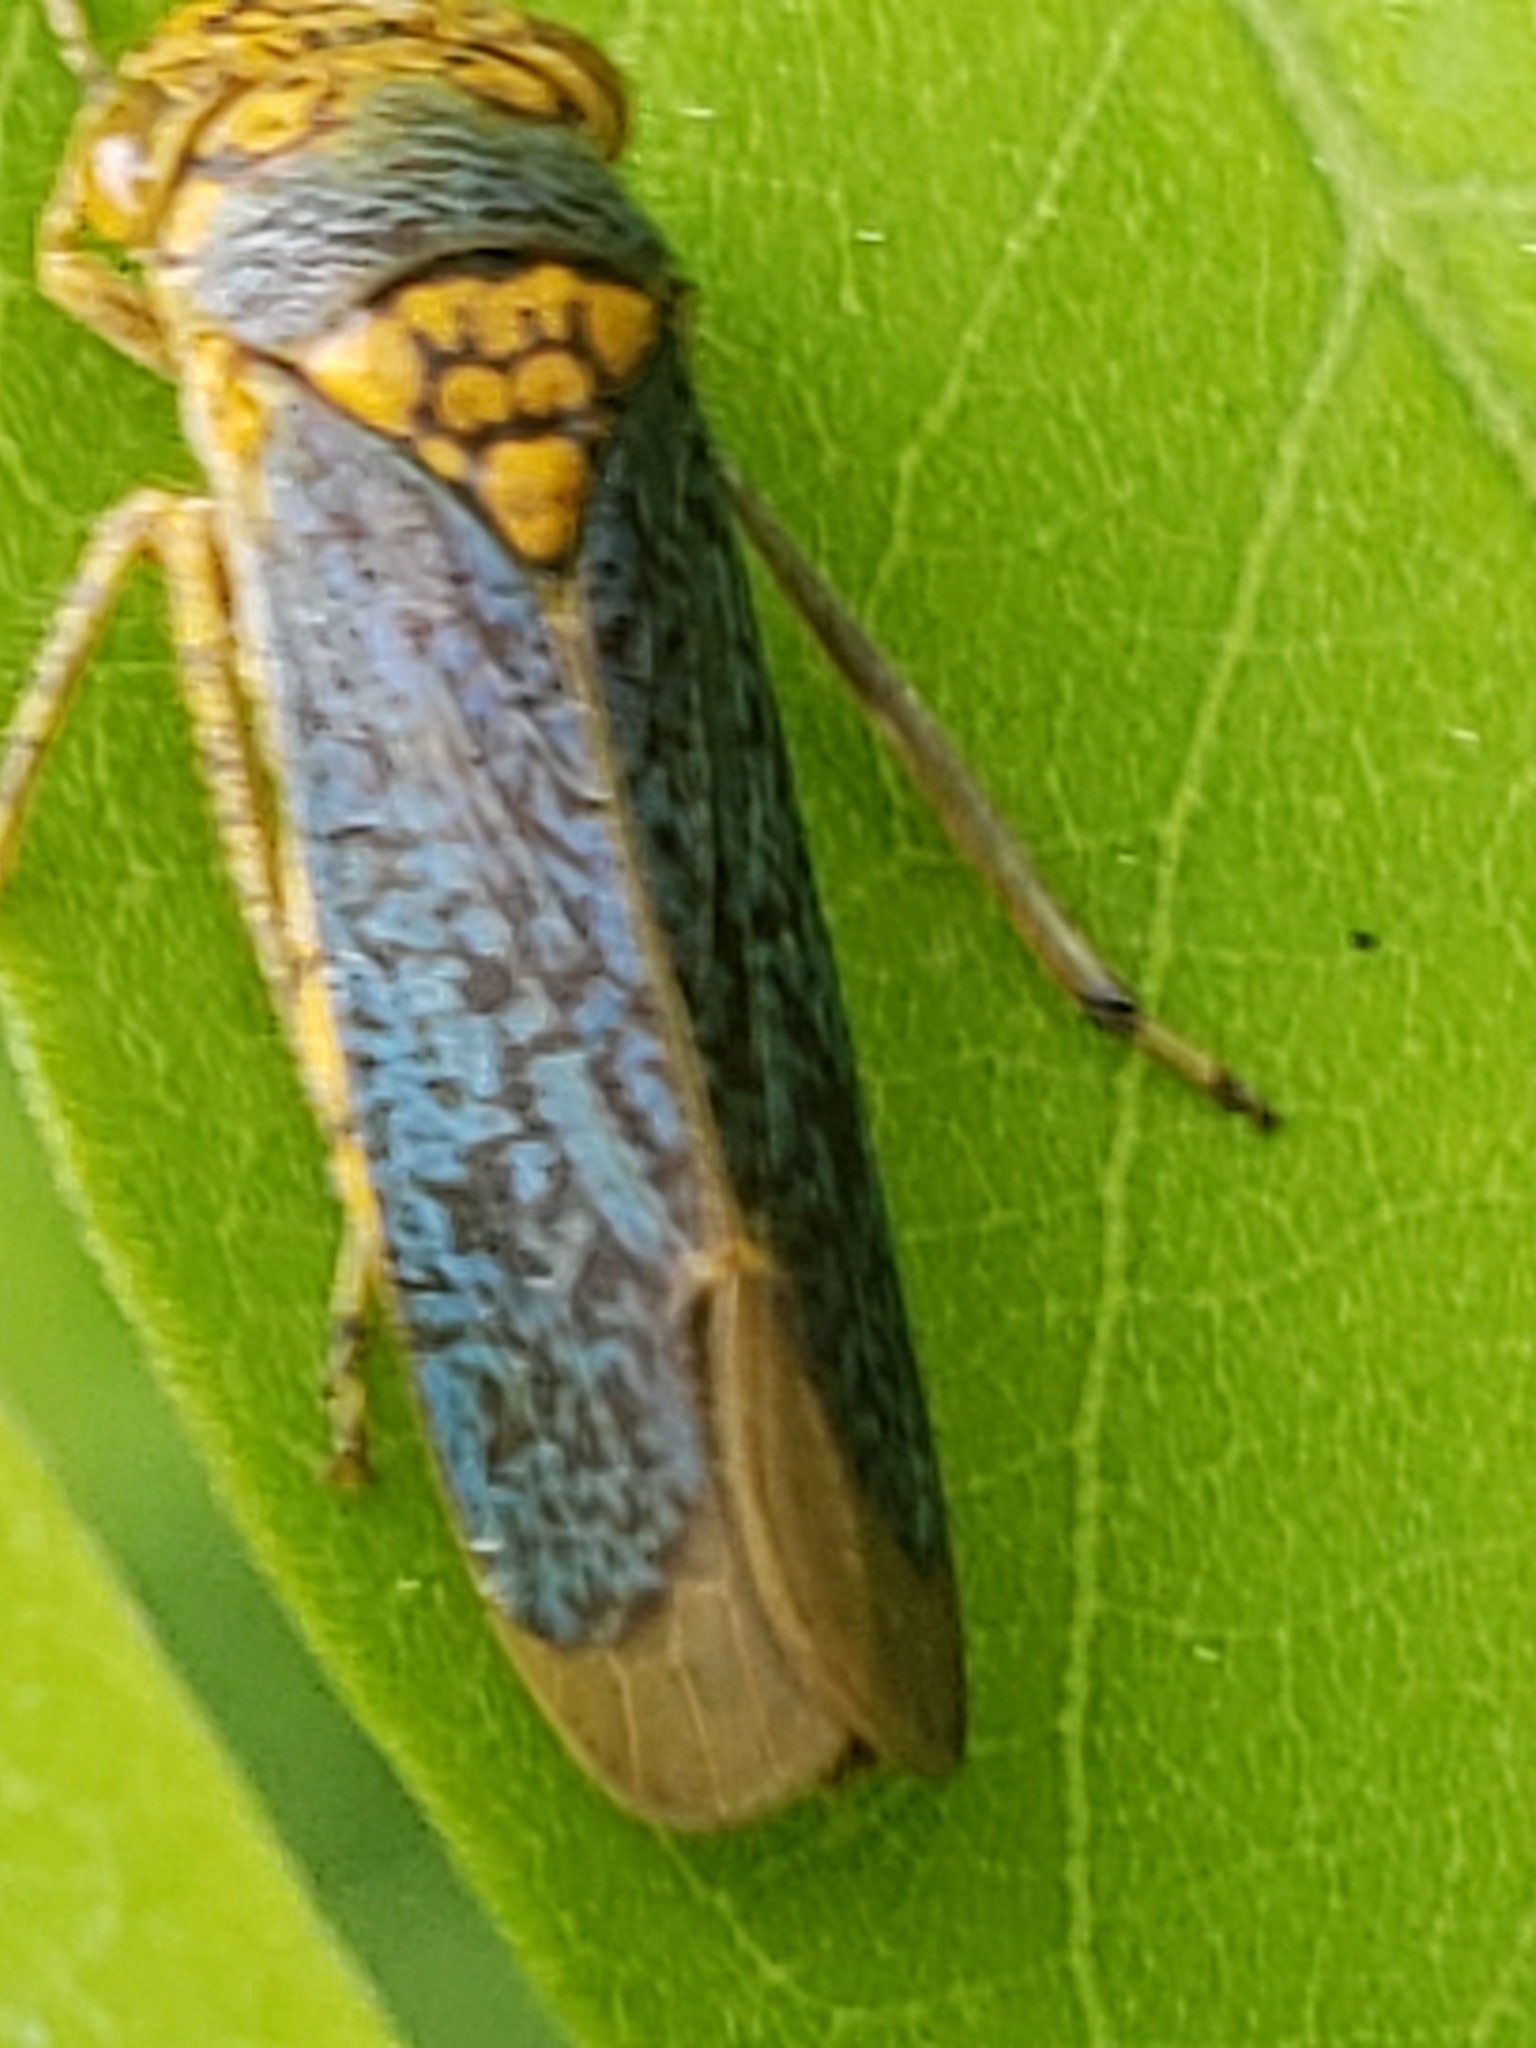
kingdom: Animalia
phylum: Arthropoda
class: Insecta
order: Hemiptera
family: Cicadellidae
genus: Oncometopia
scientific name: Oncometopia orbona
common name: Broad-headed sharpshooter
